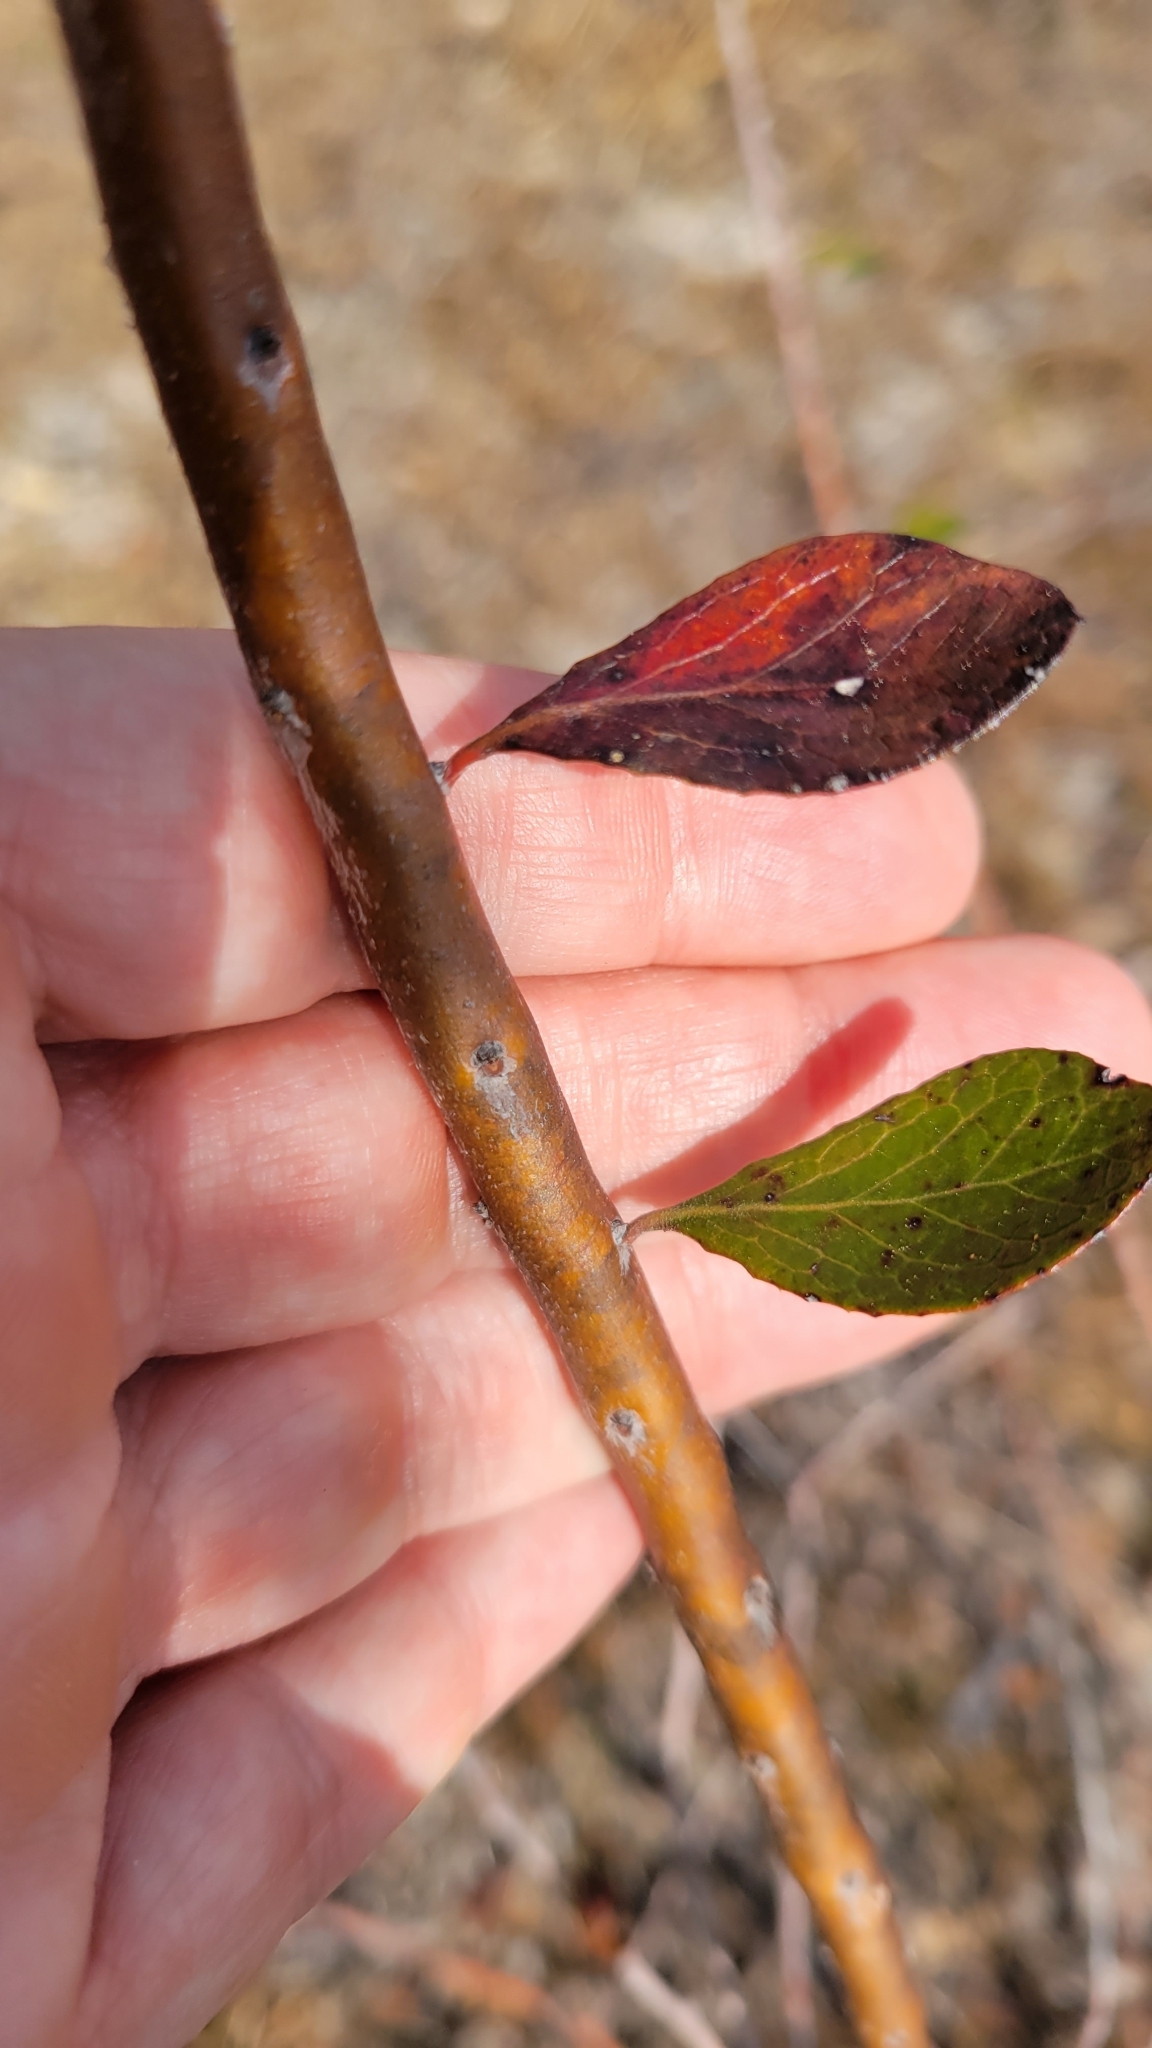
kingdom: Plantae
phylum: Tracheophyta
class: Magnoliopsida
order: Ericales
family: Ericaceae
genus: Vaccinium
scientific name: Vaccinium arboreum
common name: Farkleberry
